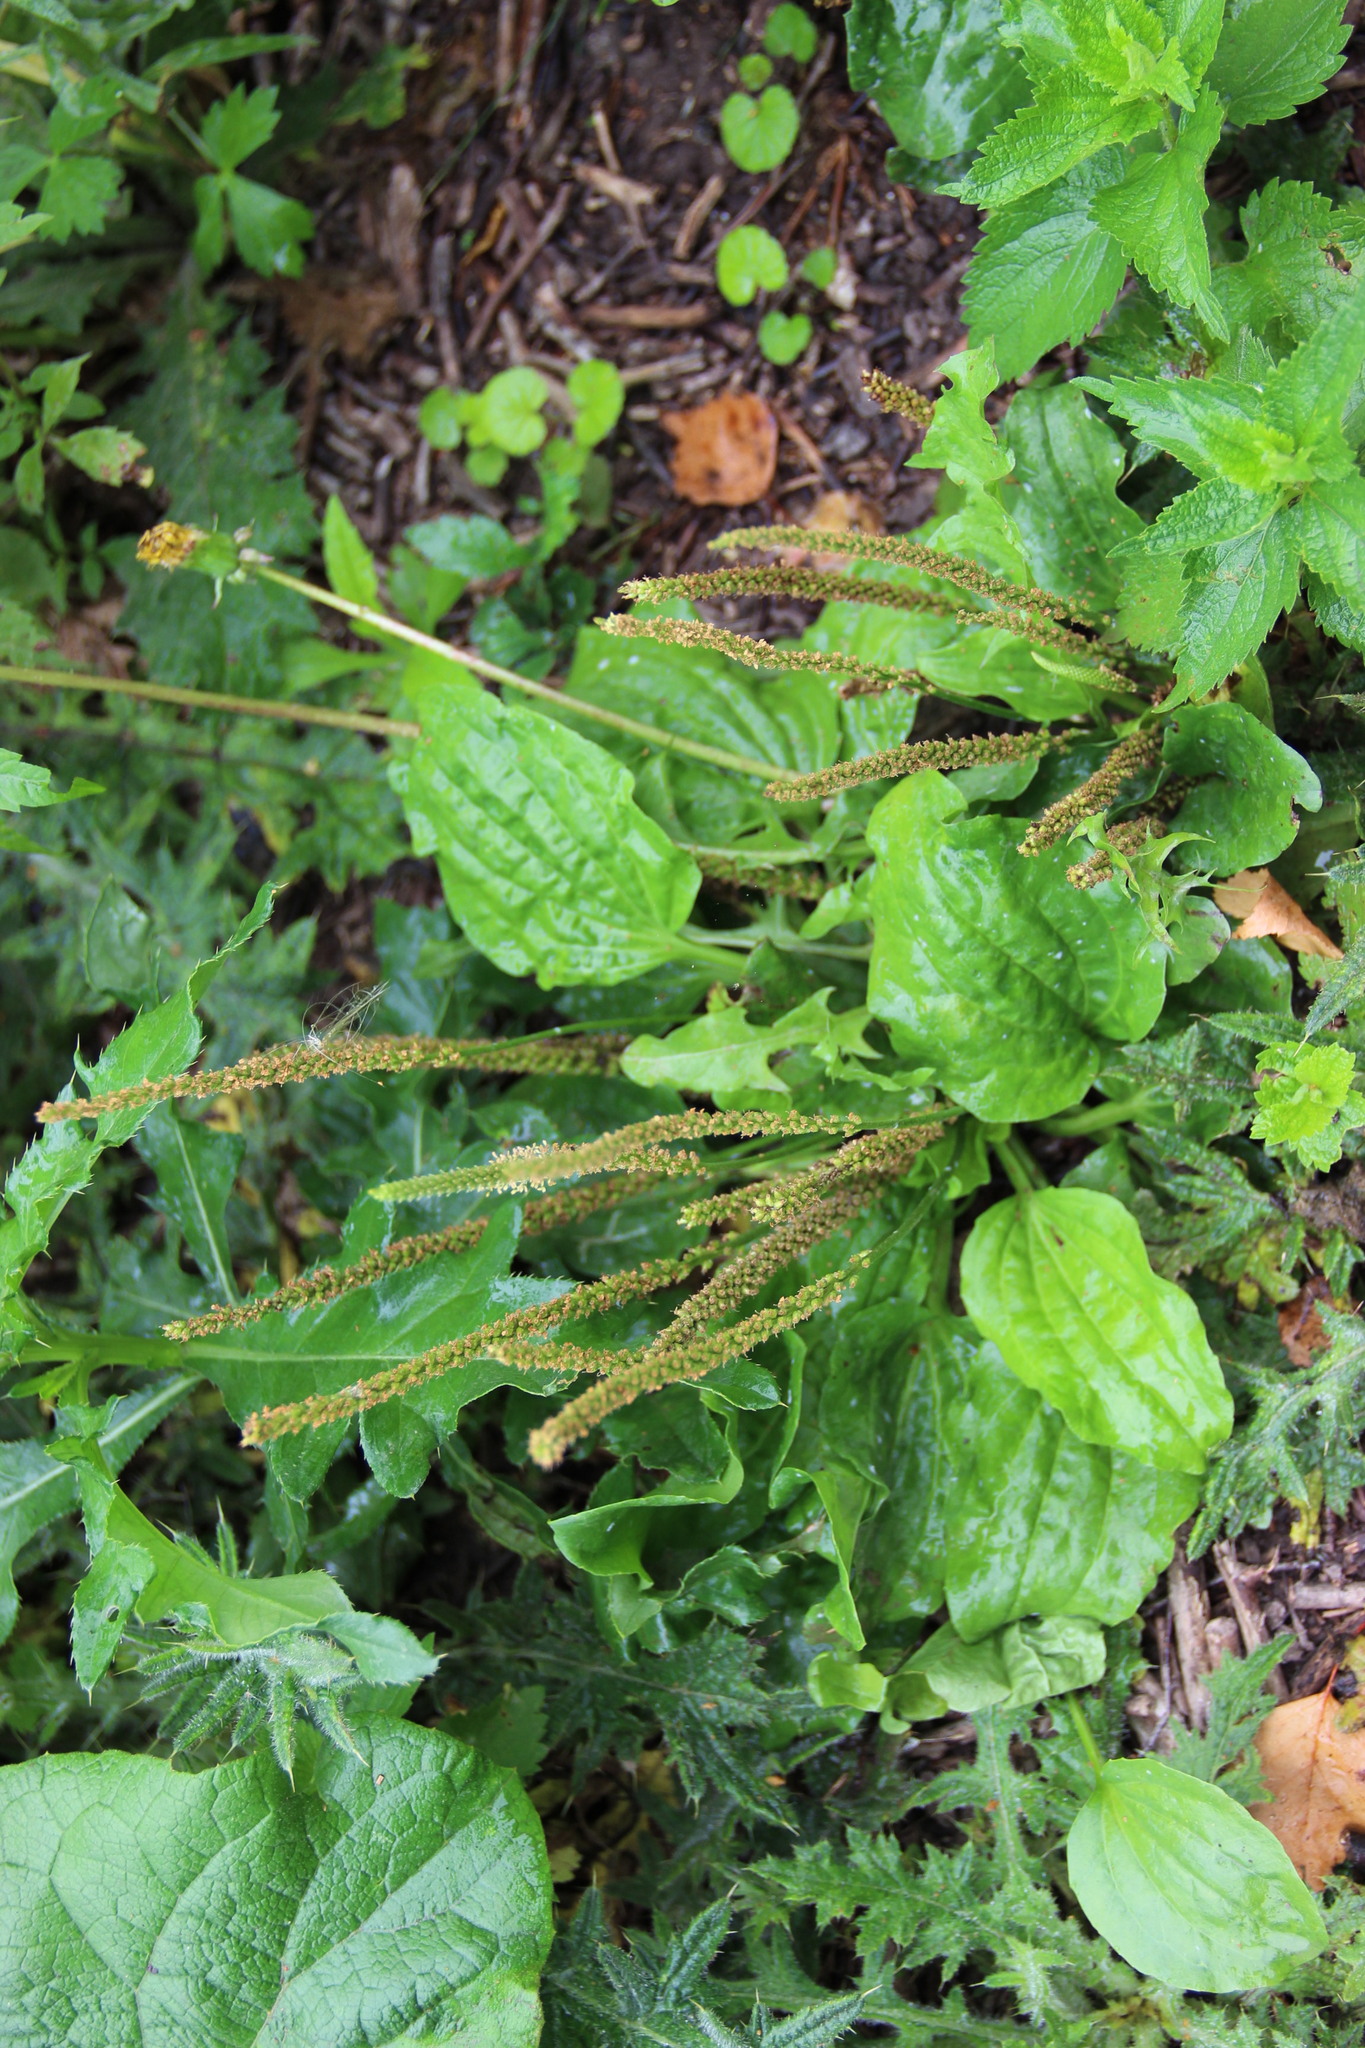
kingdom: Plantae
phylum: Tracheophyta
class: Magnoliopsida
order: Lamiales
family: Plantaginaceae
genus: Plantago
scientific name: Plantago major
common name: Common plantain
